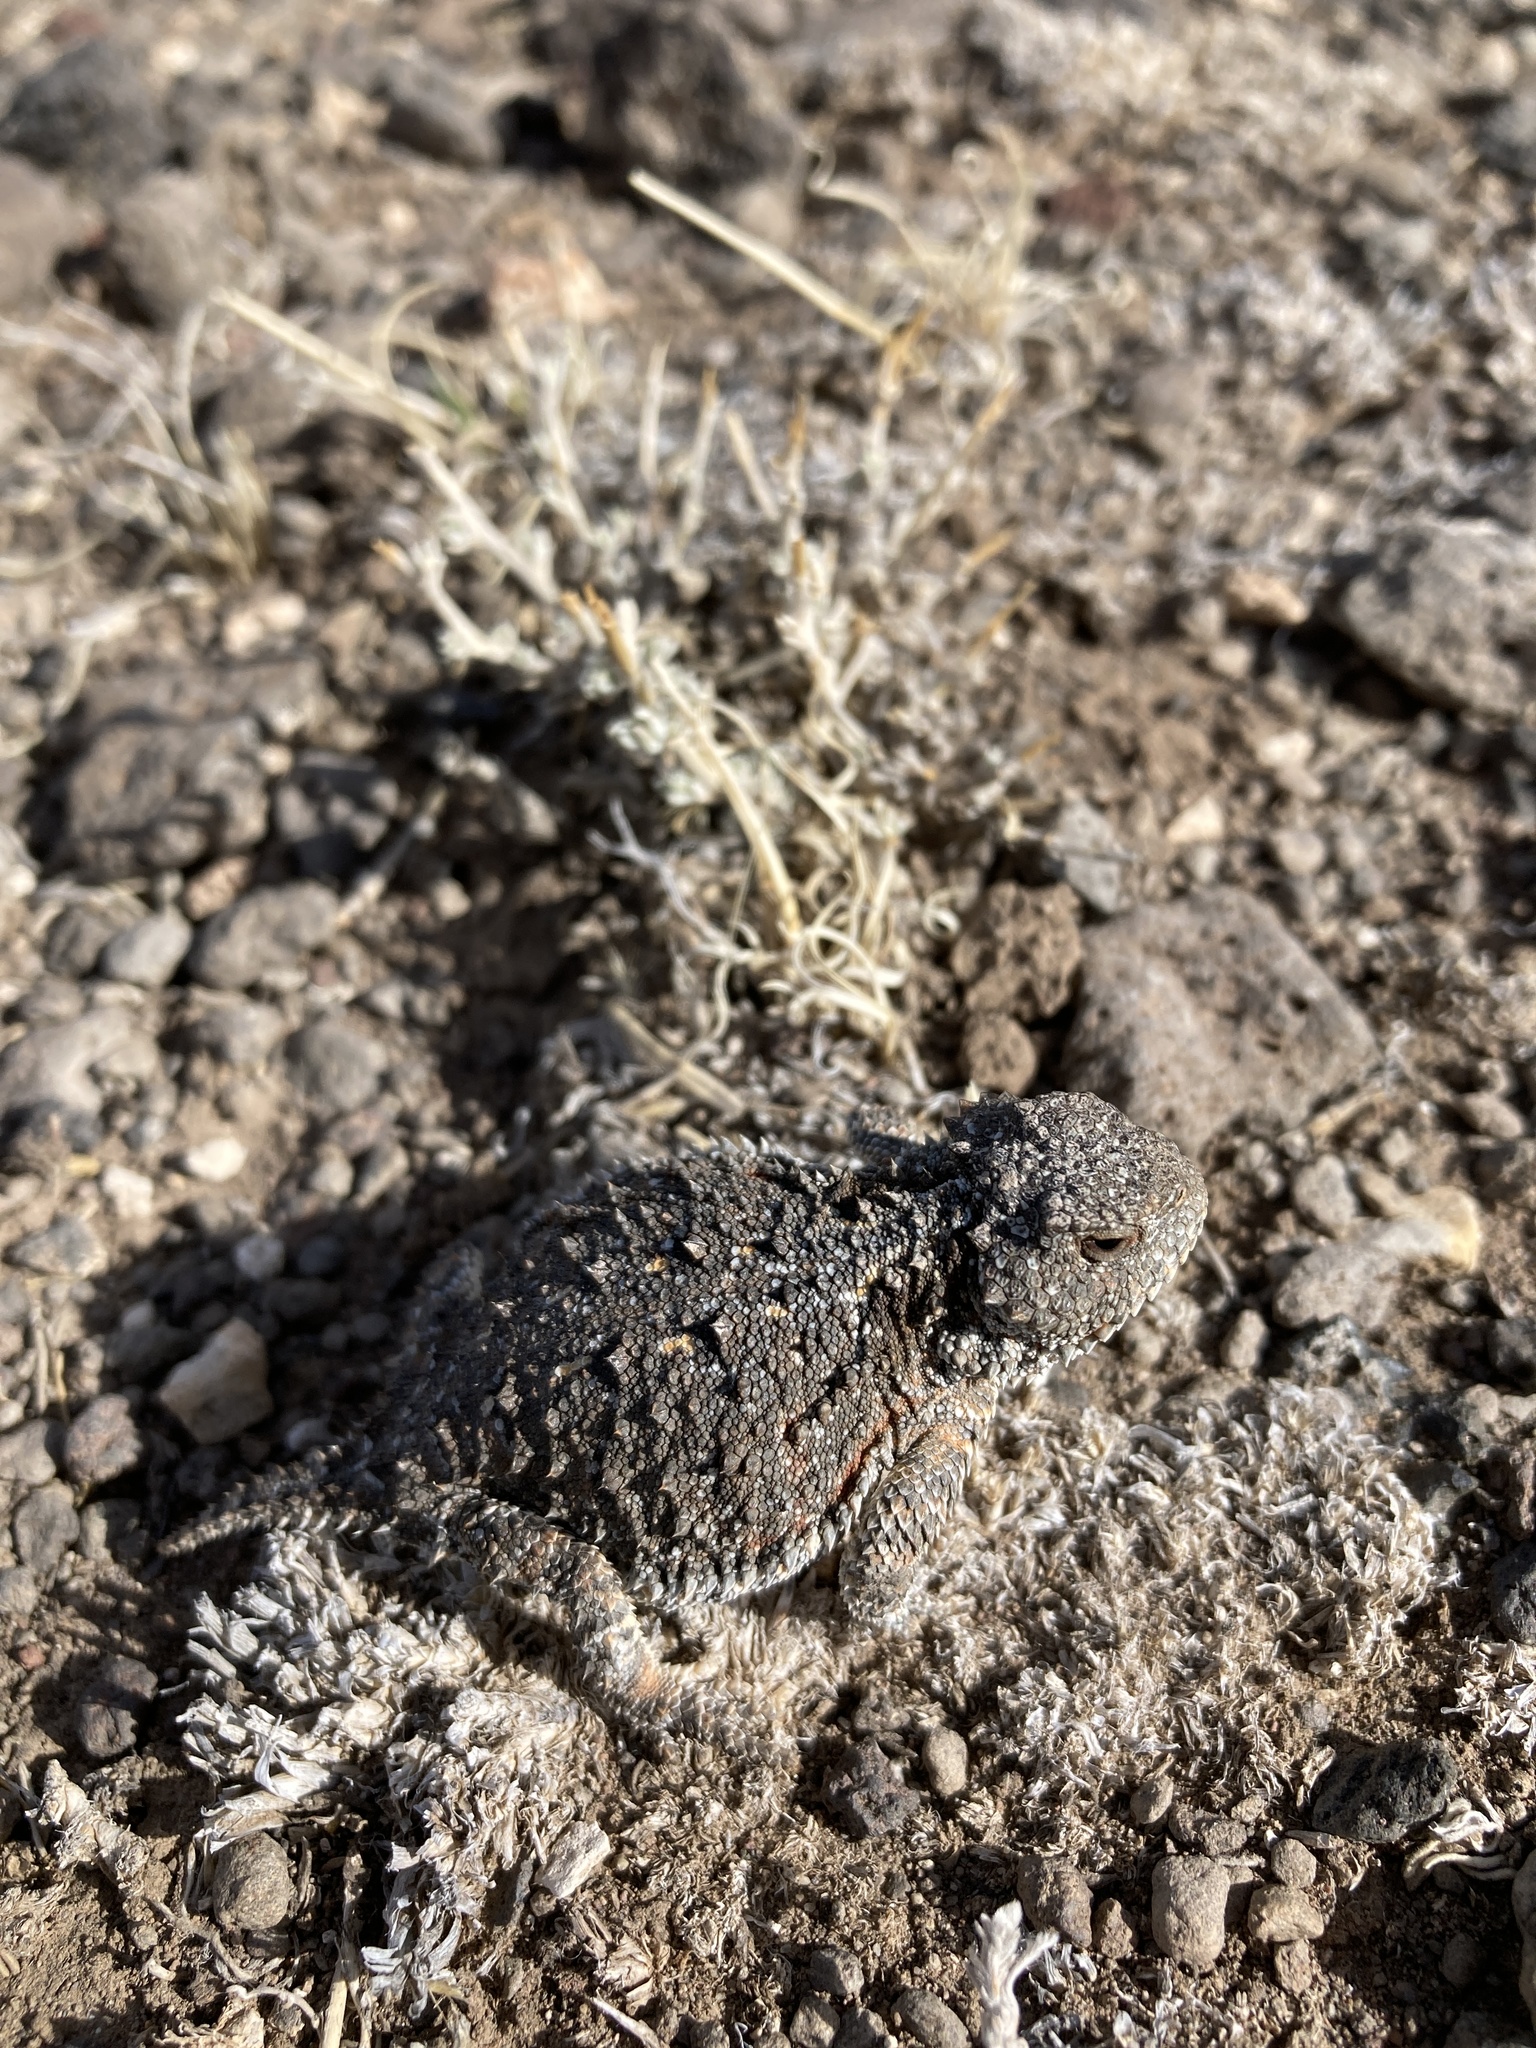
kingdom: Animalia
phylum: Chordata
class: Squamata
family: Phrynosomatidae
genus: Phrynosoma
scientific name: Phrynosoma hernandesi
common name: Greater short-horned lizard
